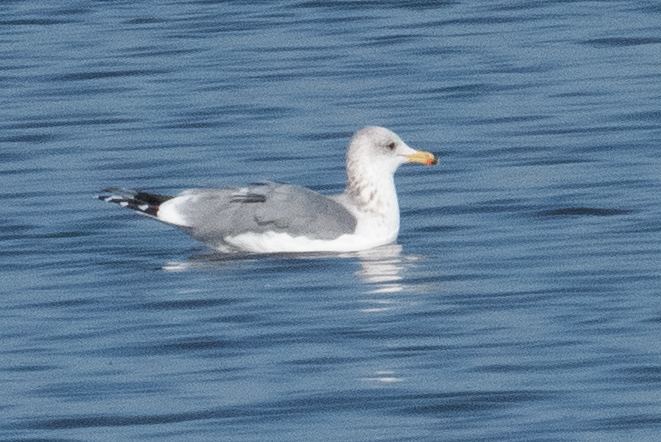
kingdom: Animalia
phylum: Chordata
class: Aves
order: Charadriiformes
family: Laridae
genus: Larus
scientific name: Larus californicus
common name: California gull
